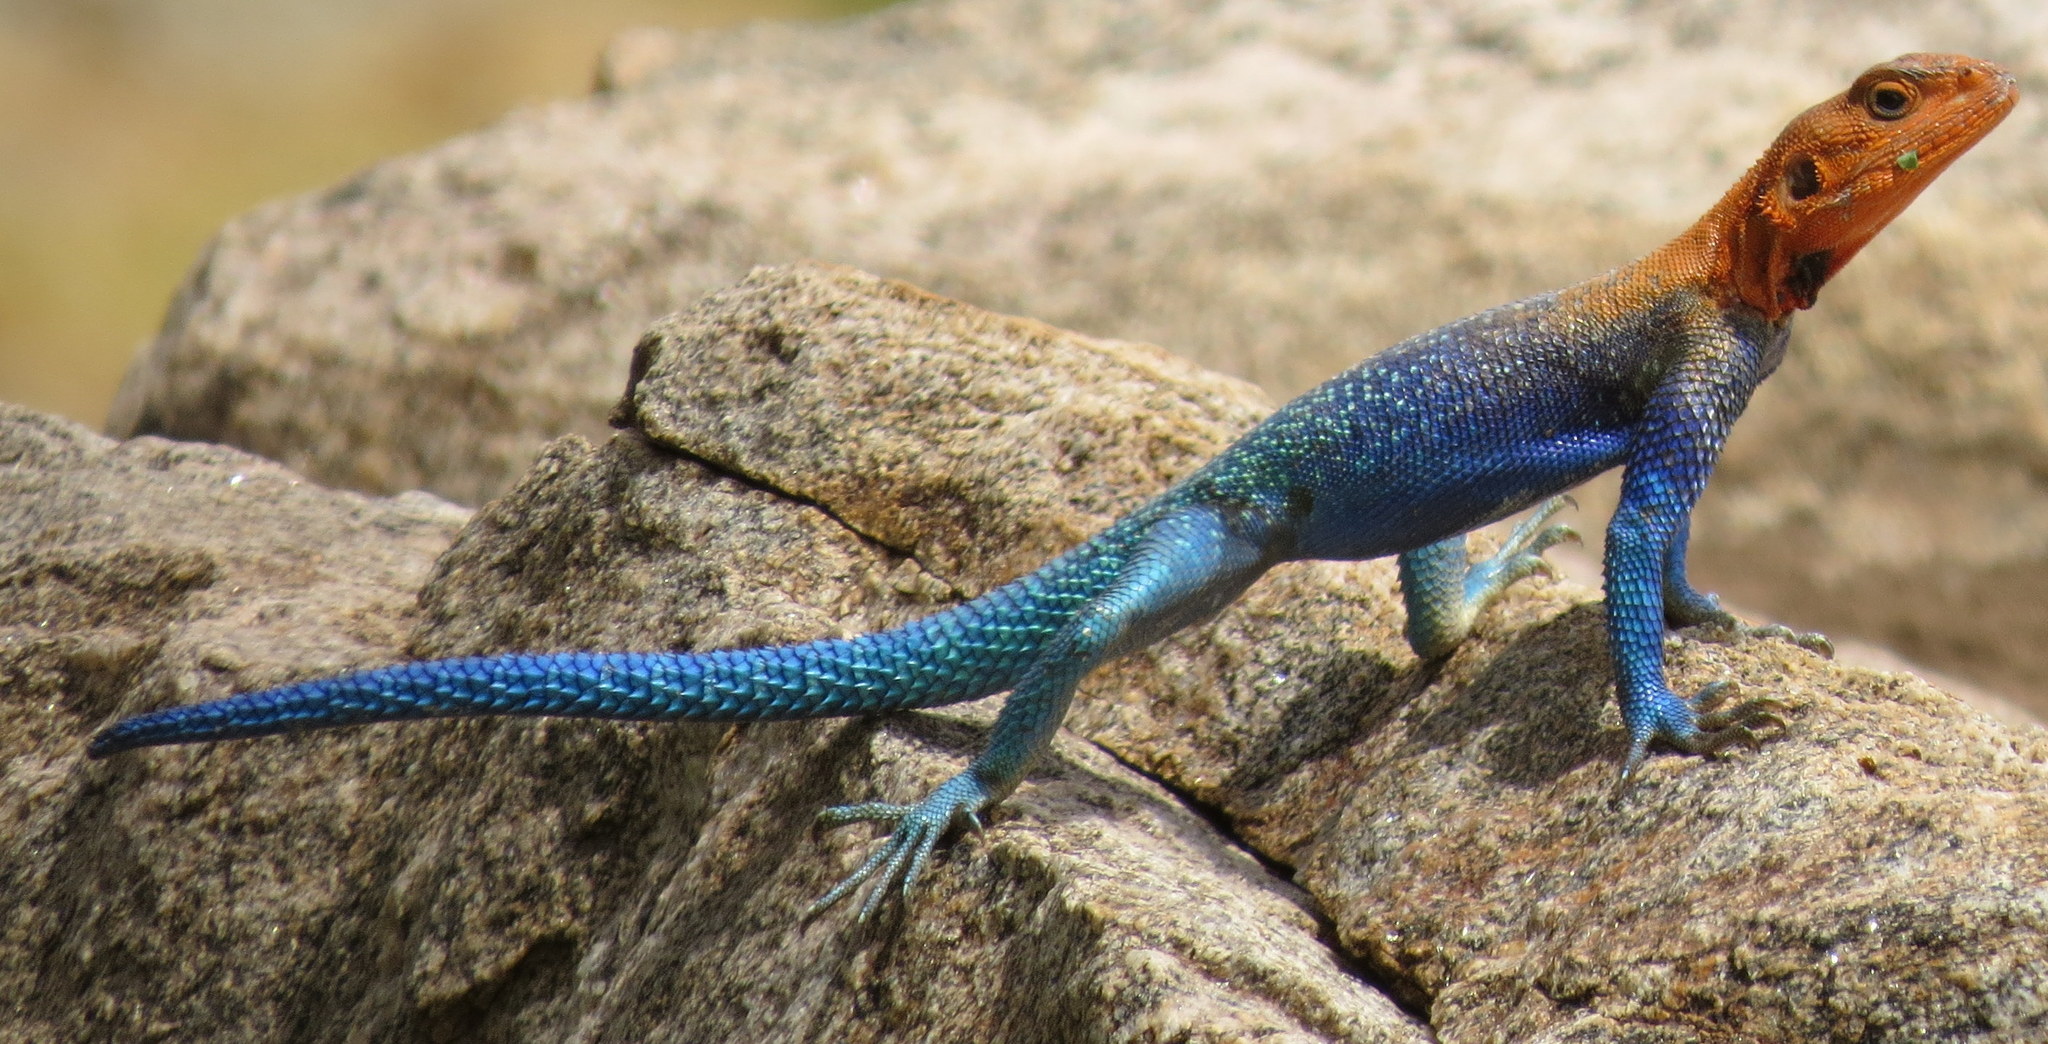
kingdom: Animalia
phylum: Chordata
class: Squamata
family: Agamidae
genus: Agama
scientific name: Agama dodomae
